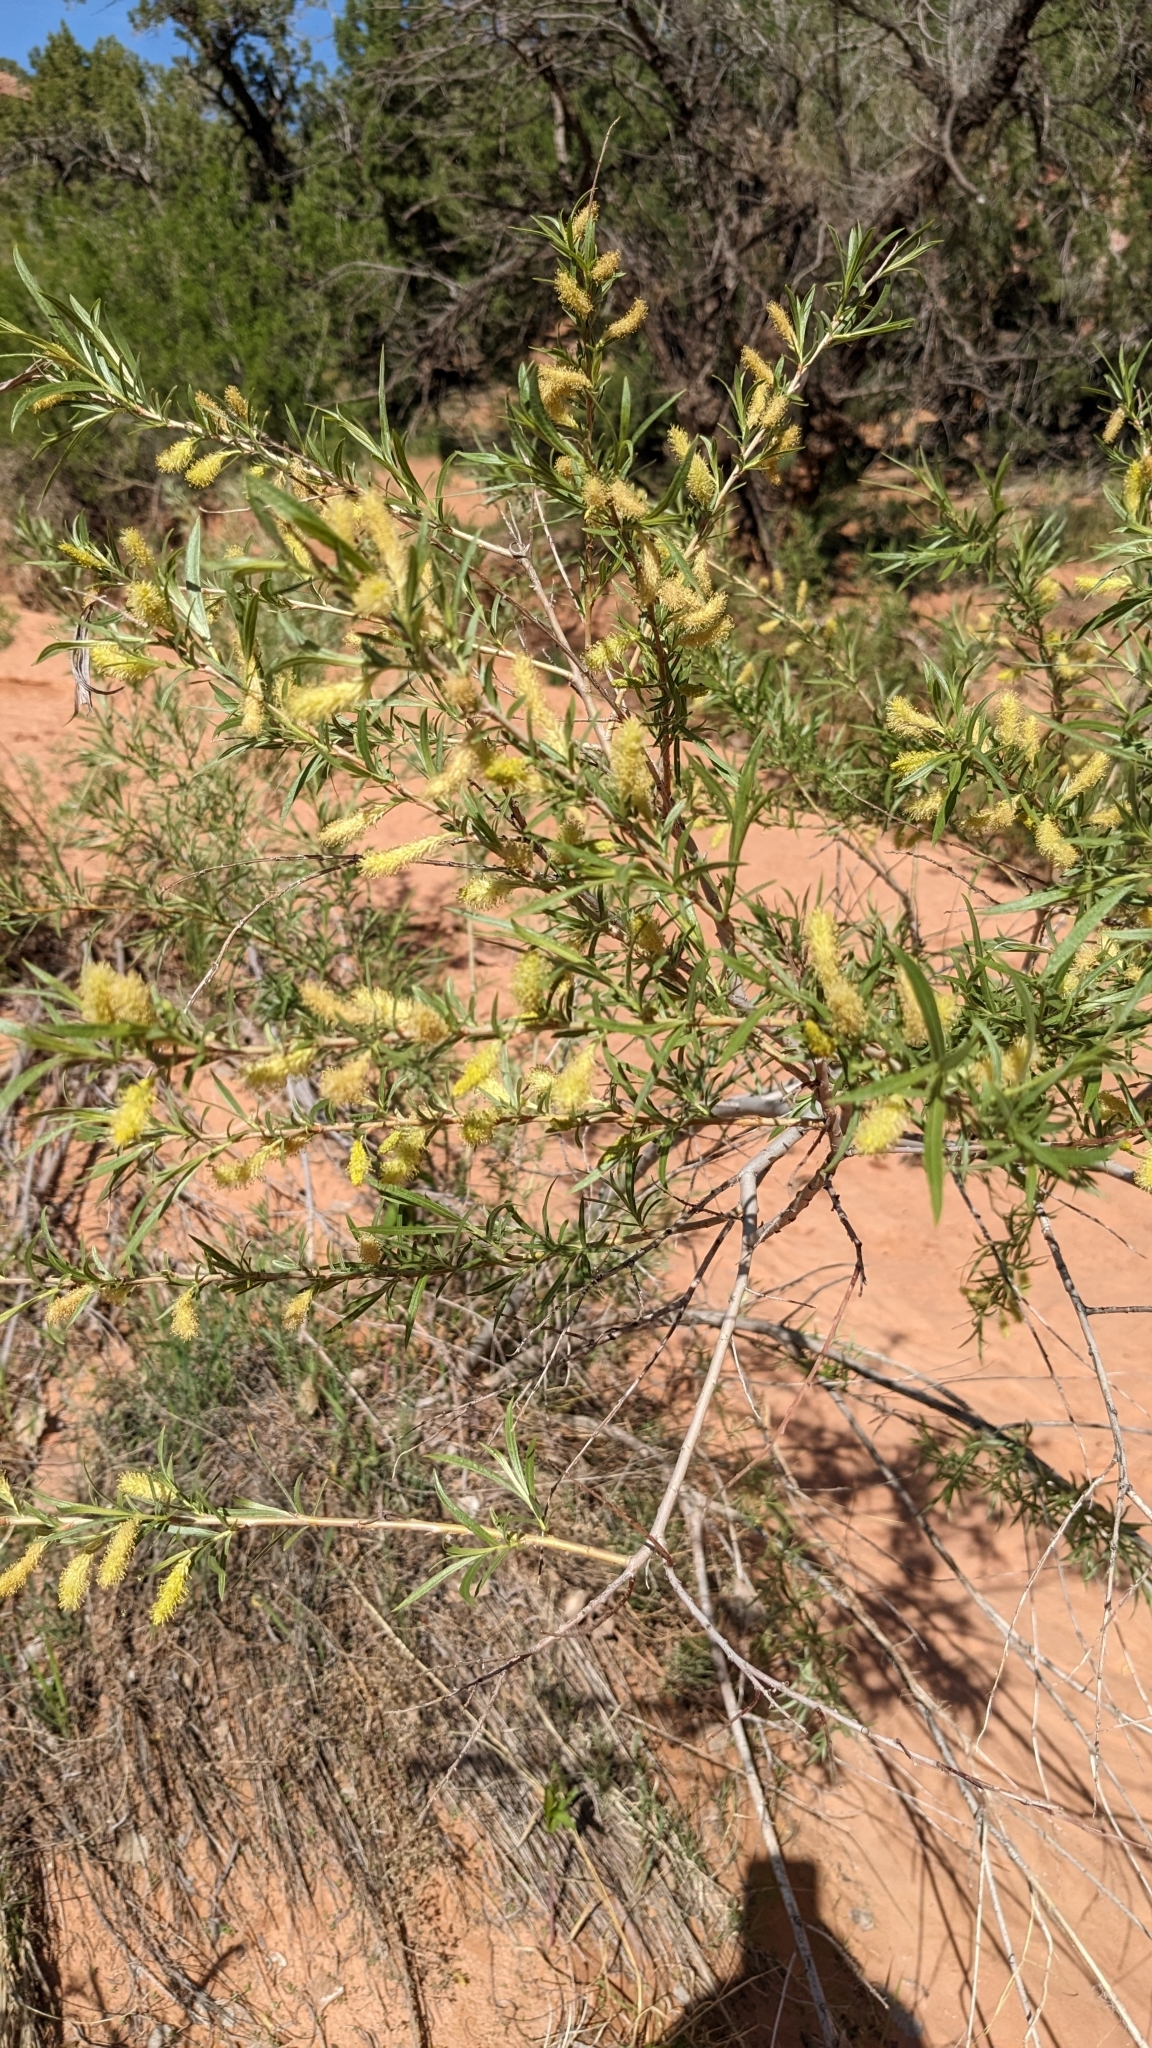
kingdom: Plantae
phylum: Tracheophyta
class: Magnoliopsida
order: Malpighiales
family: Salicaceae
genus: Salix
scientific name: Salix exigua
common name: Coyote willow
